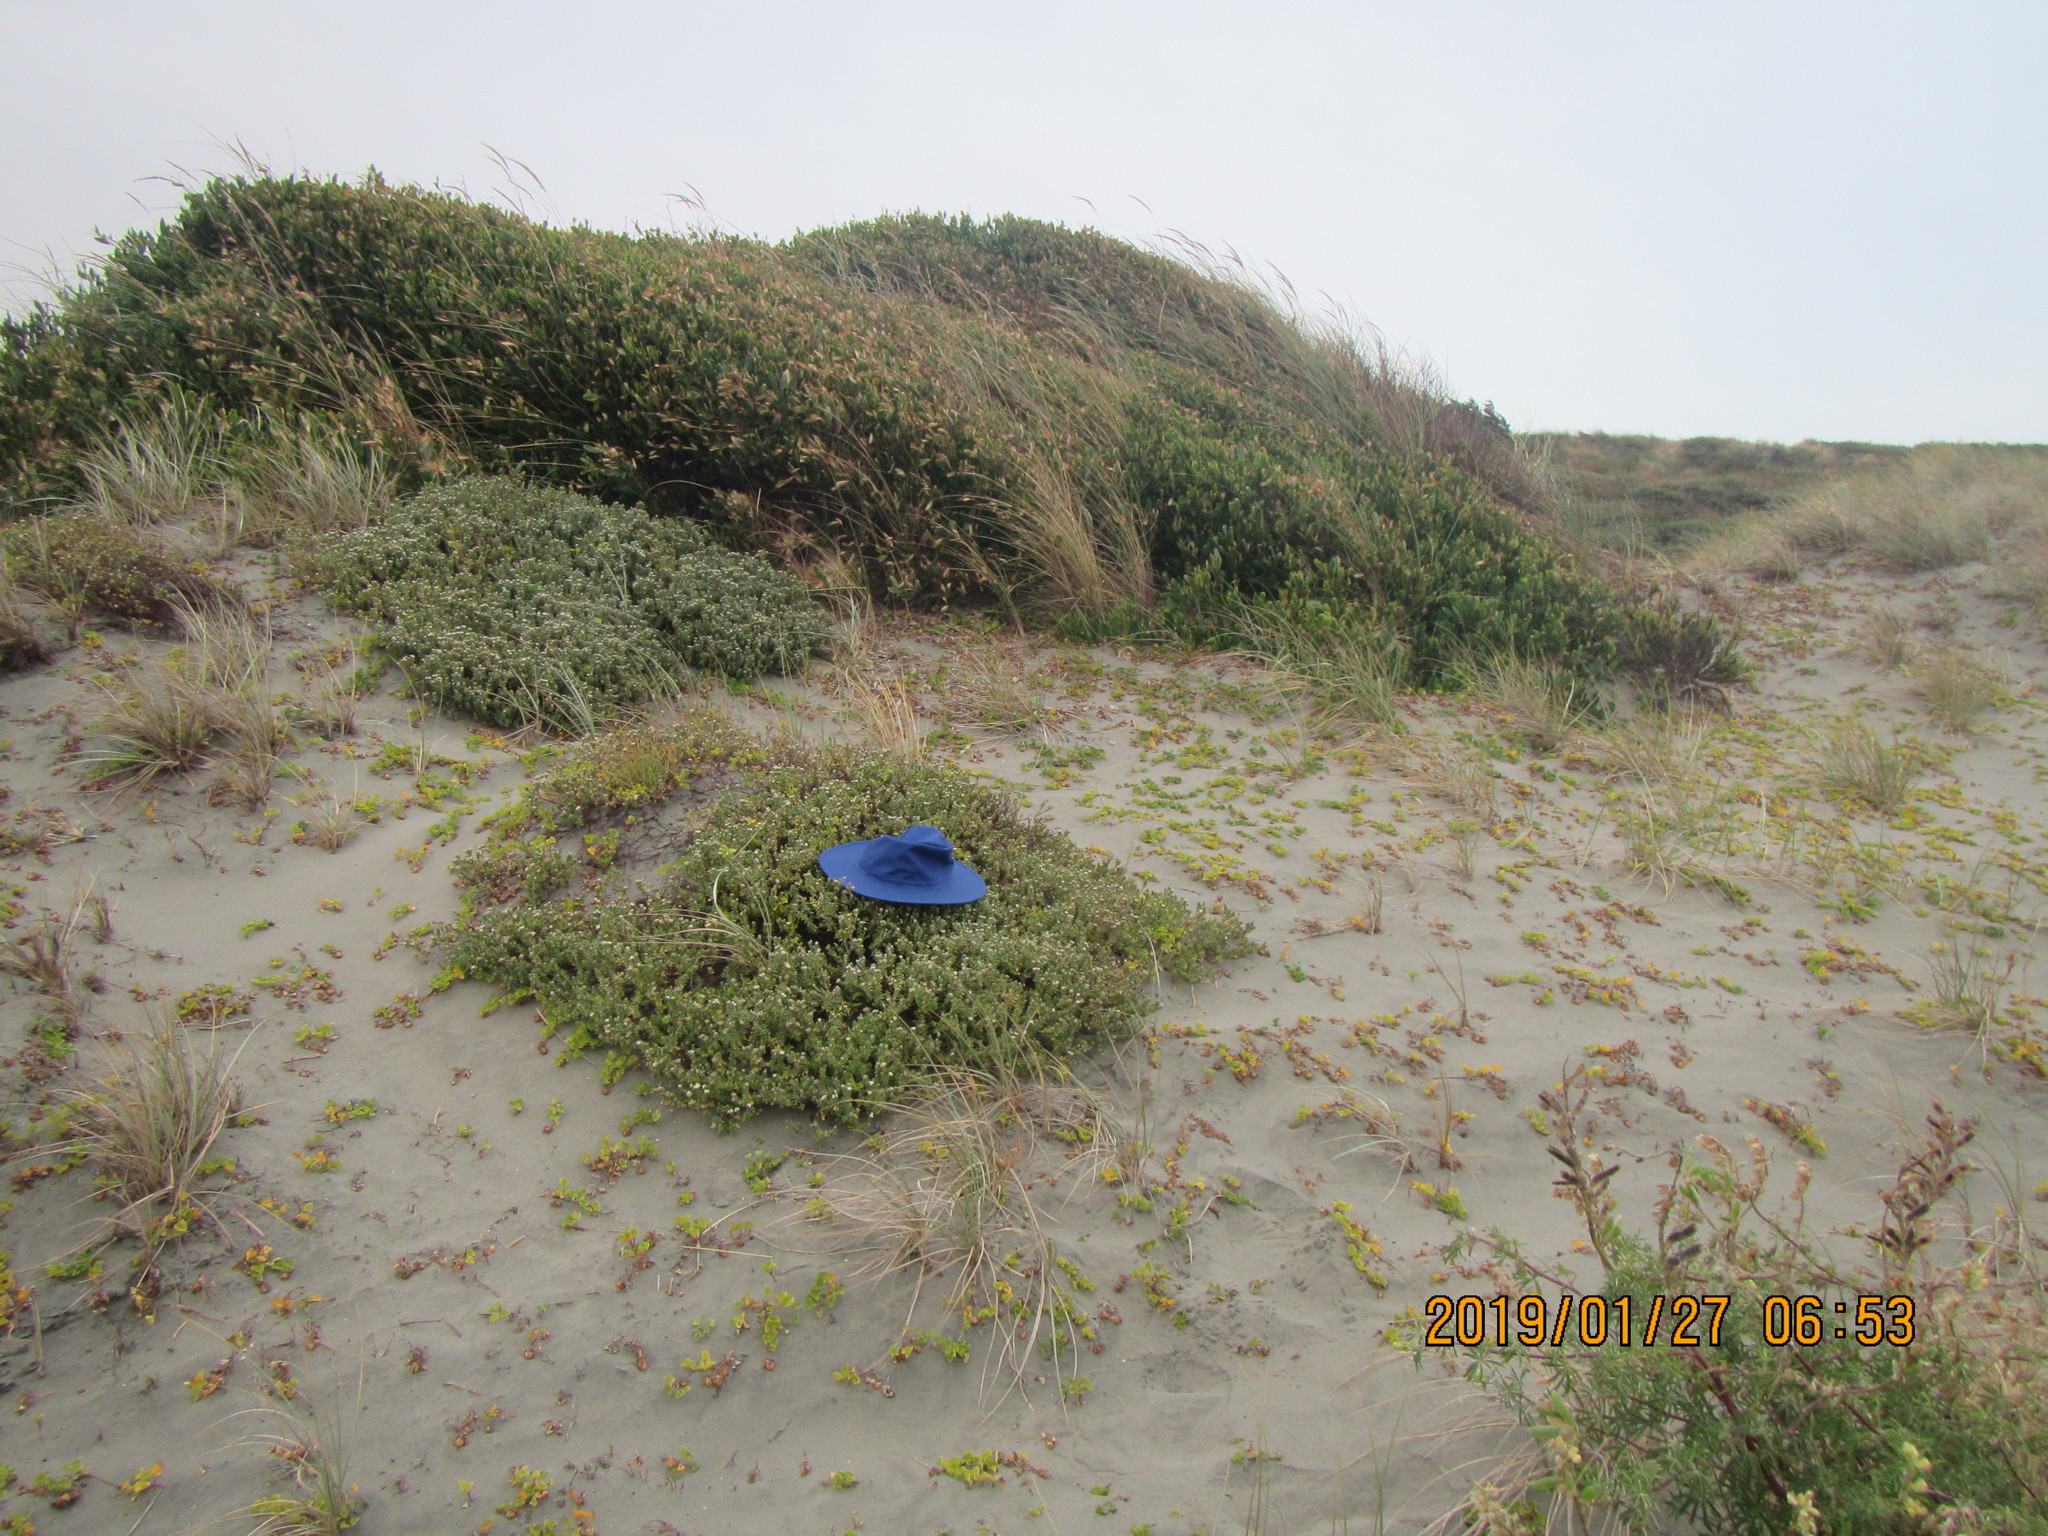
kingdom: Plantae
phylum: Tracheophyta
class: Magnoliopsida
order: Malvales
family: Thymelaeaceae
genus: Pimelea
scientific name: Pimelea villosa
